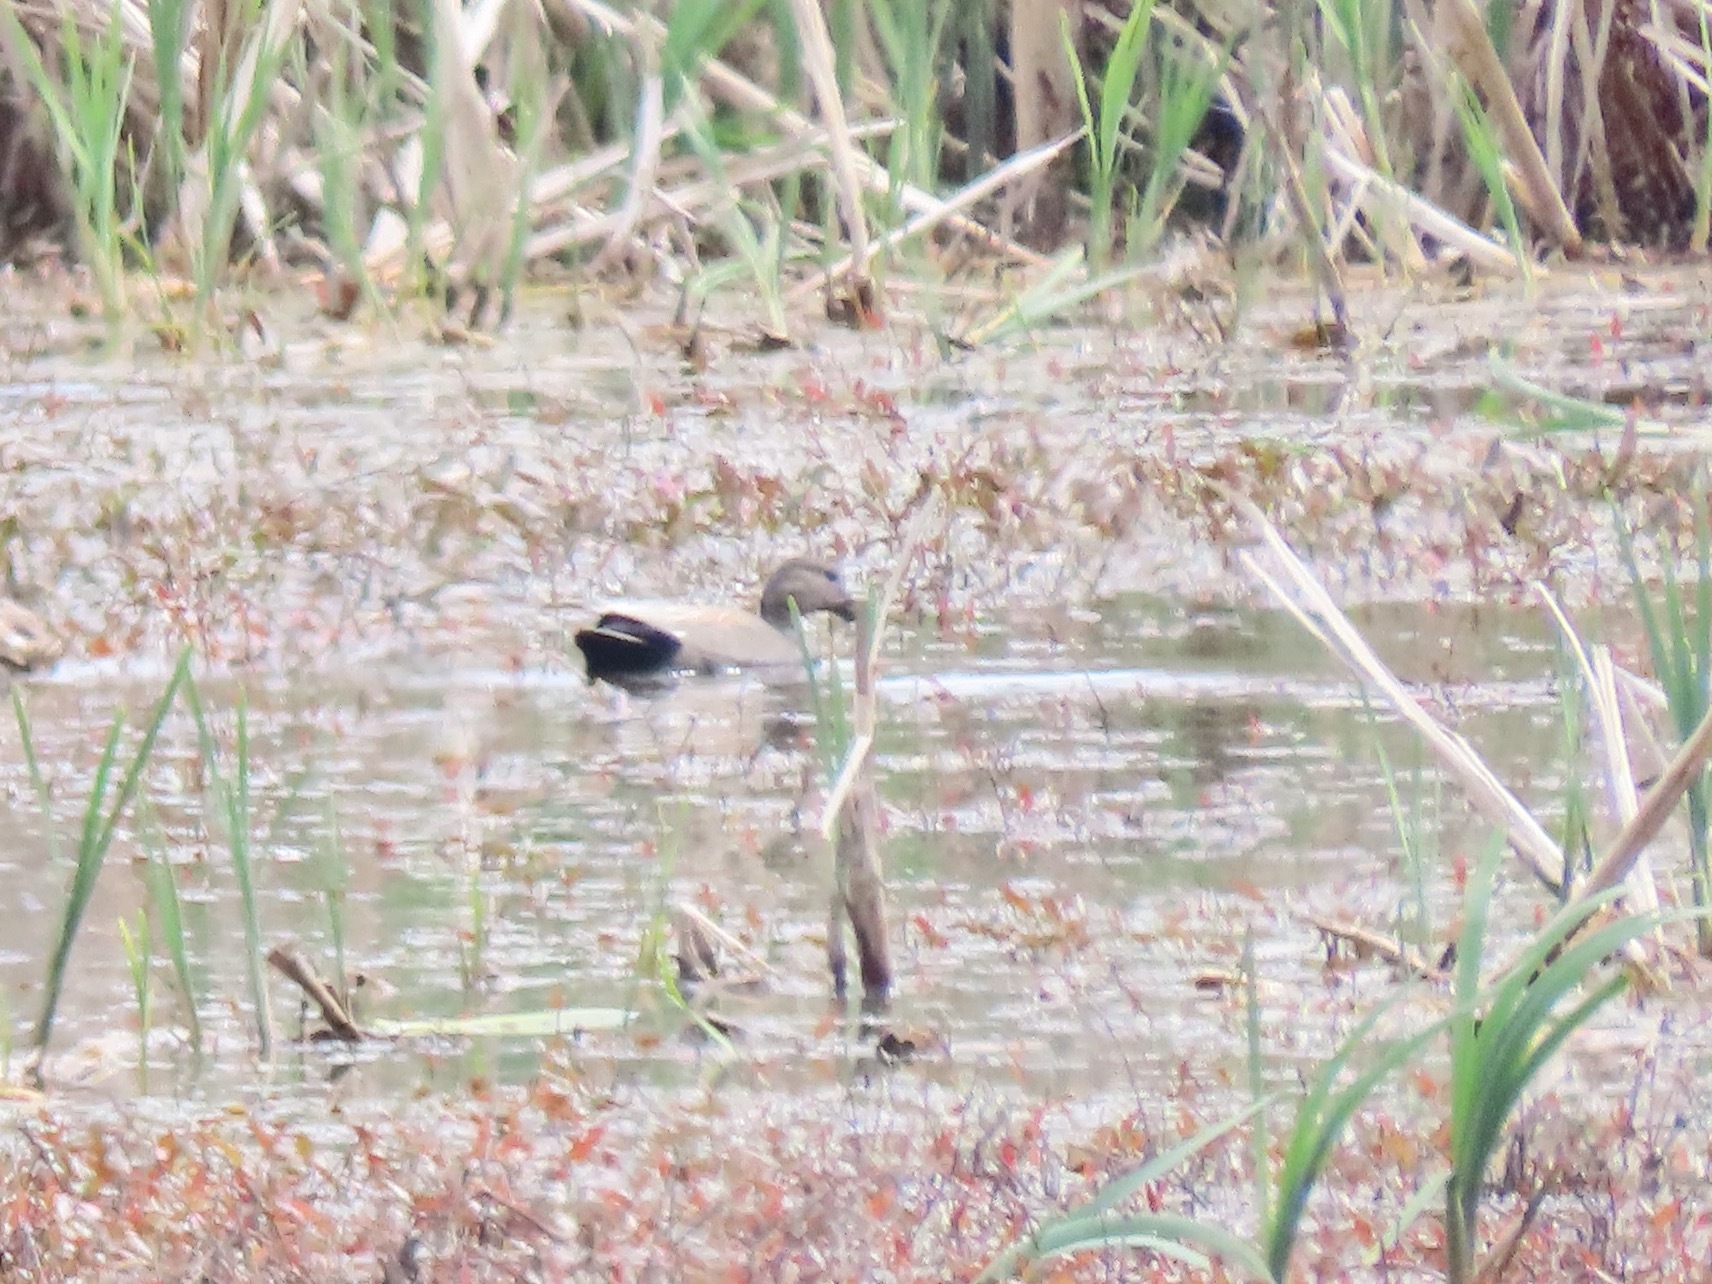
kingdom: Animalia
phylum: Chordata
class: Aves
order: Anseriformes
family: Anatidae
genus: Mareca
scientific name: Mareca strepera
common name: Gadwall
